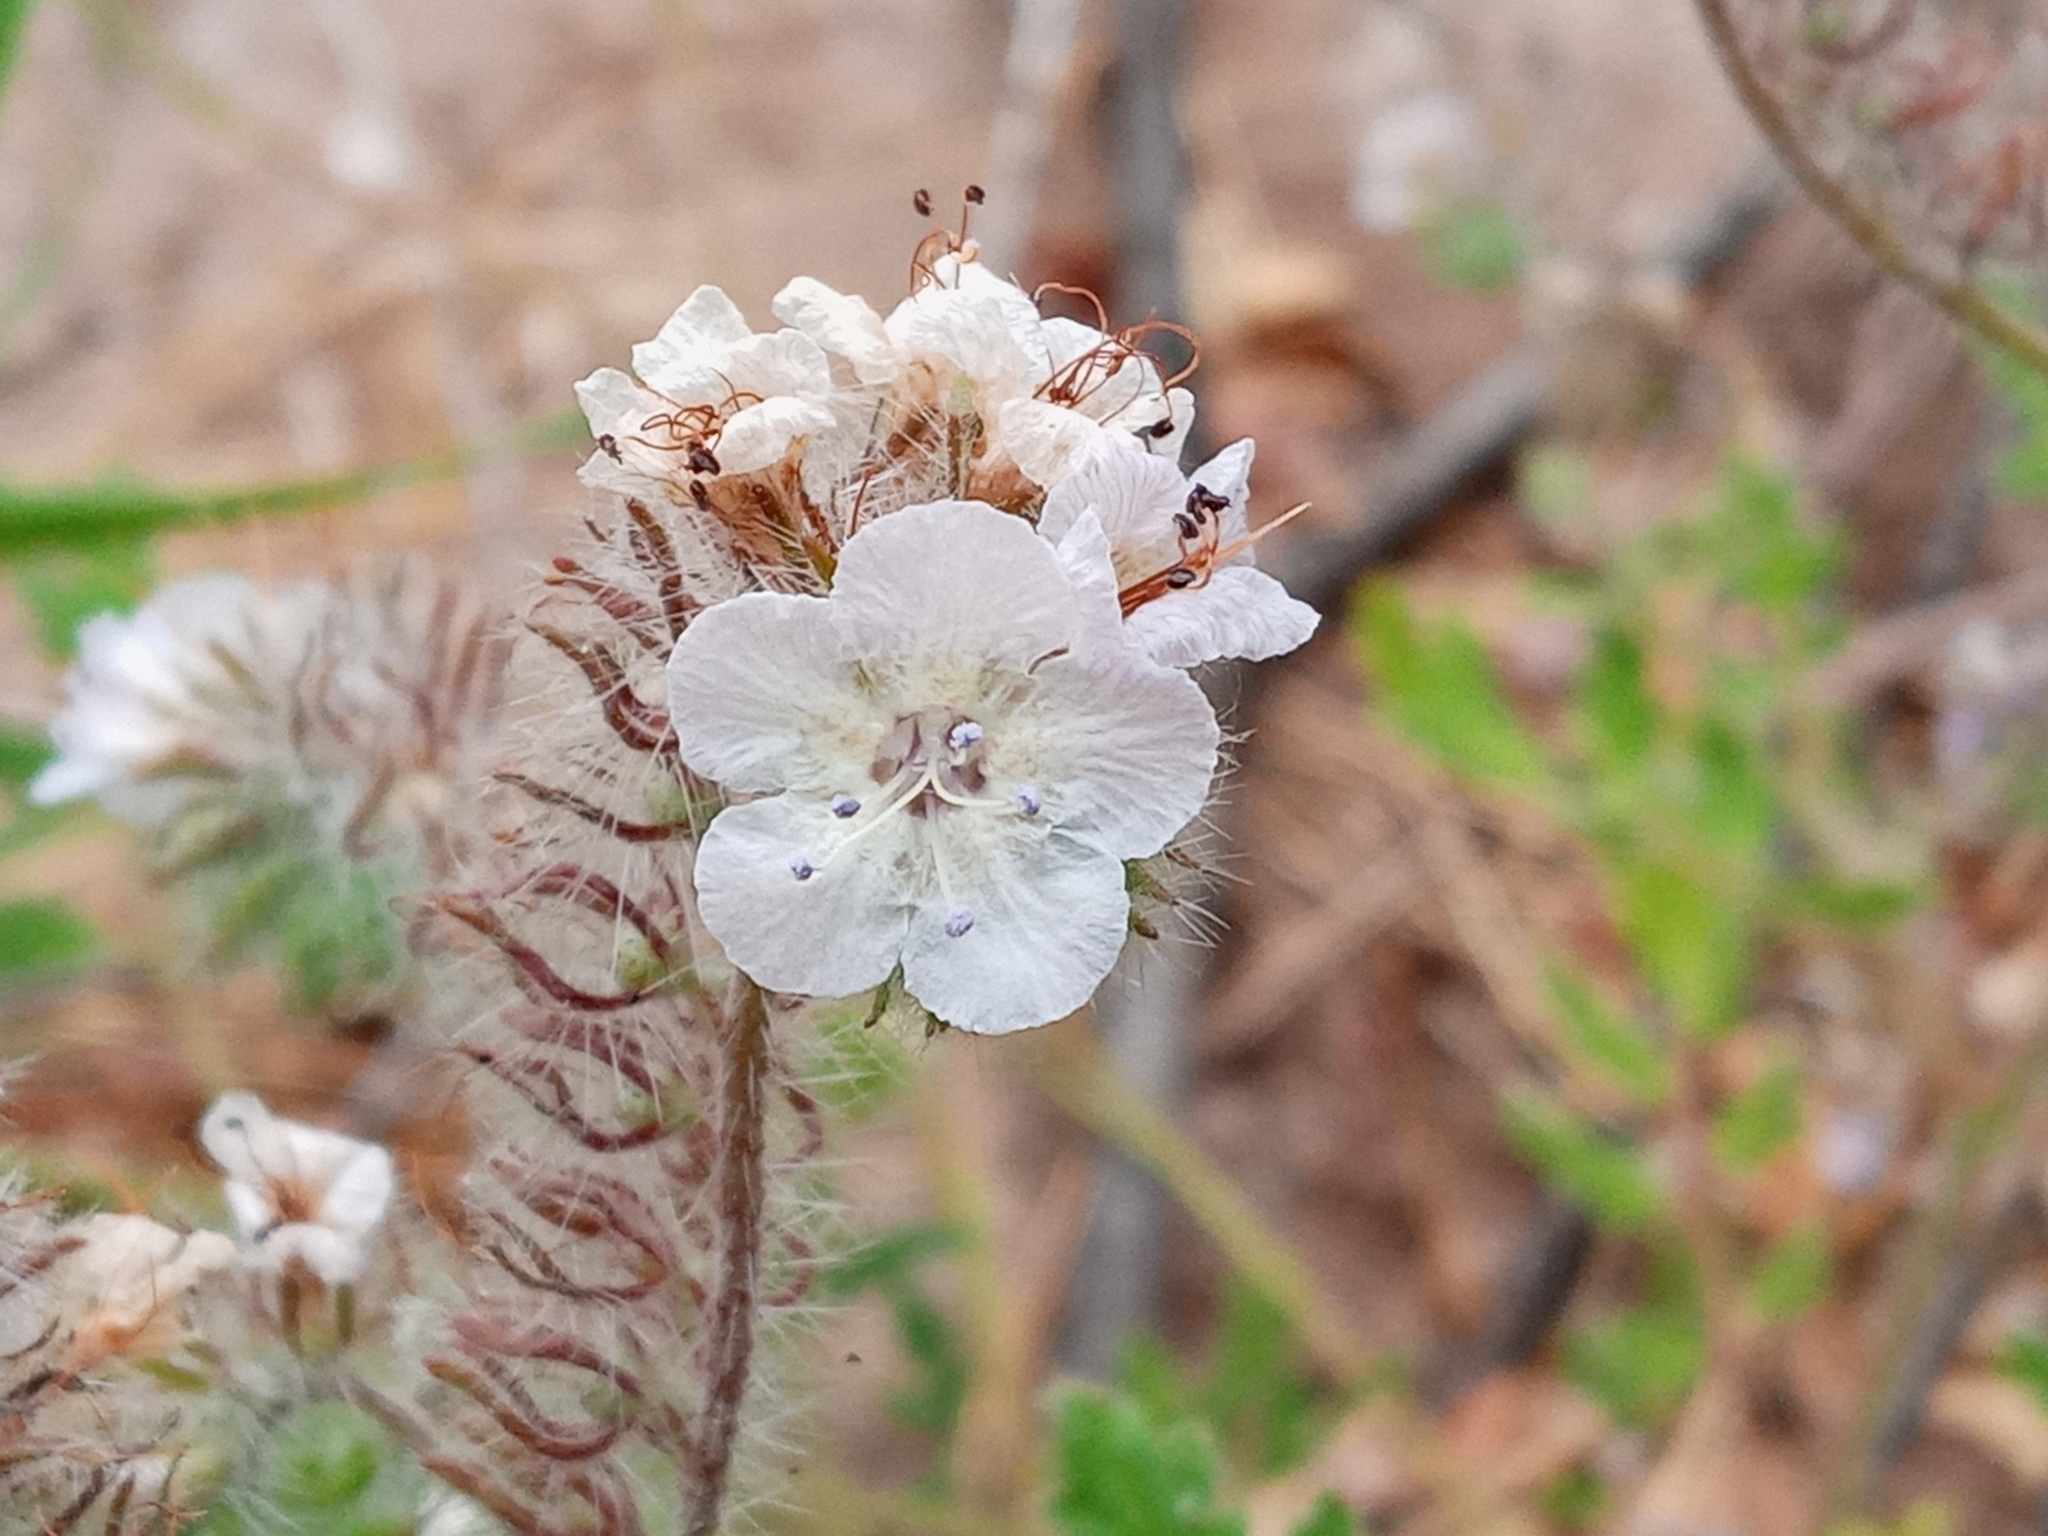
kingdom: Plantae
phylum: Tracheophyta
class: Magnoliopsida
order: Boraginales
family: Hydrophyllaceae
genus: Phacelia
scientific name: Phacelia cicutaria
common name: Caterpillar phacelia
